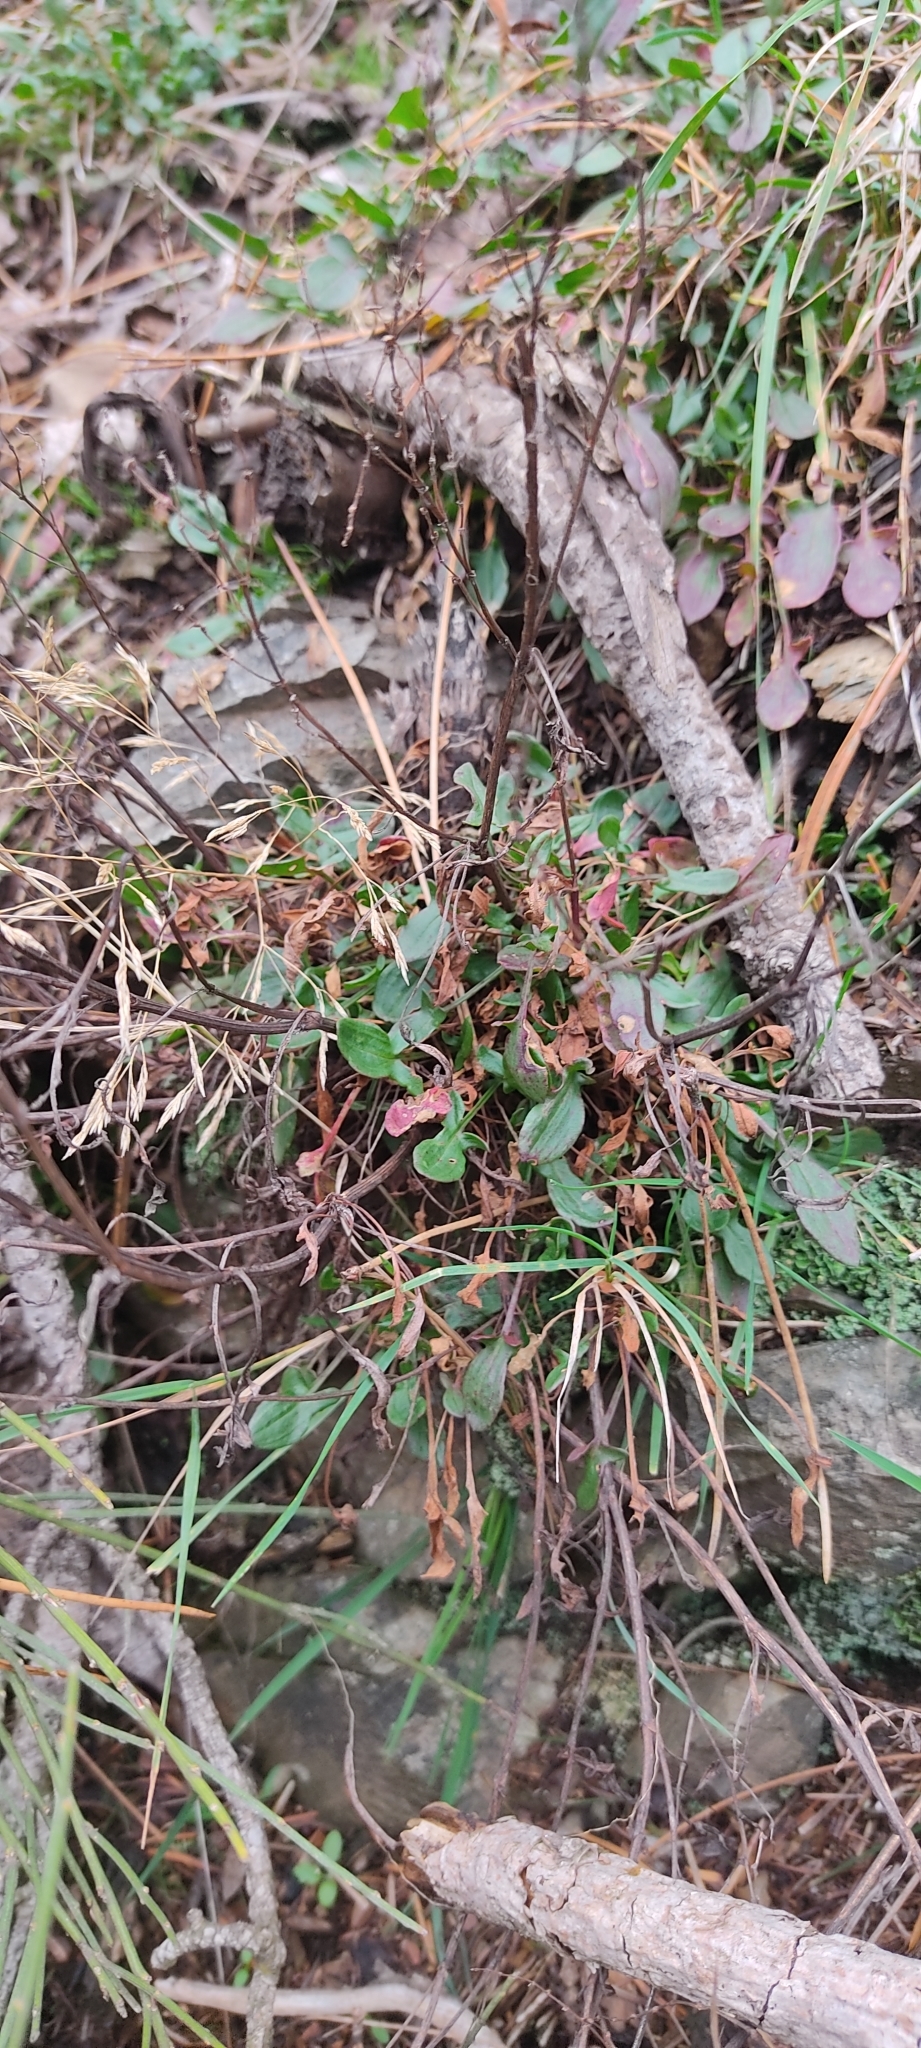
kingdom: Plantae
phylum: Tracheophyta
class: Magnoliopsida
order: Caryophyllales
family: Polygonaceae
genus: Rumex
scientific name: Rumex acetosella
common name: Common sheep sorrel
